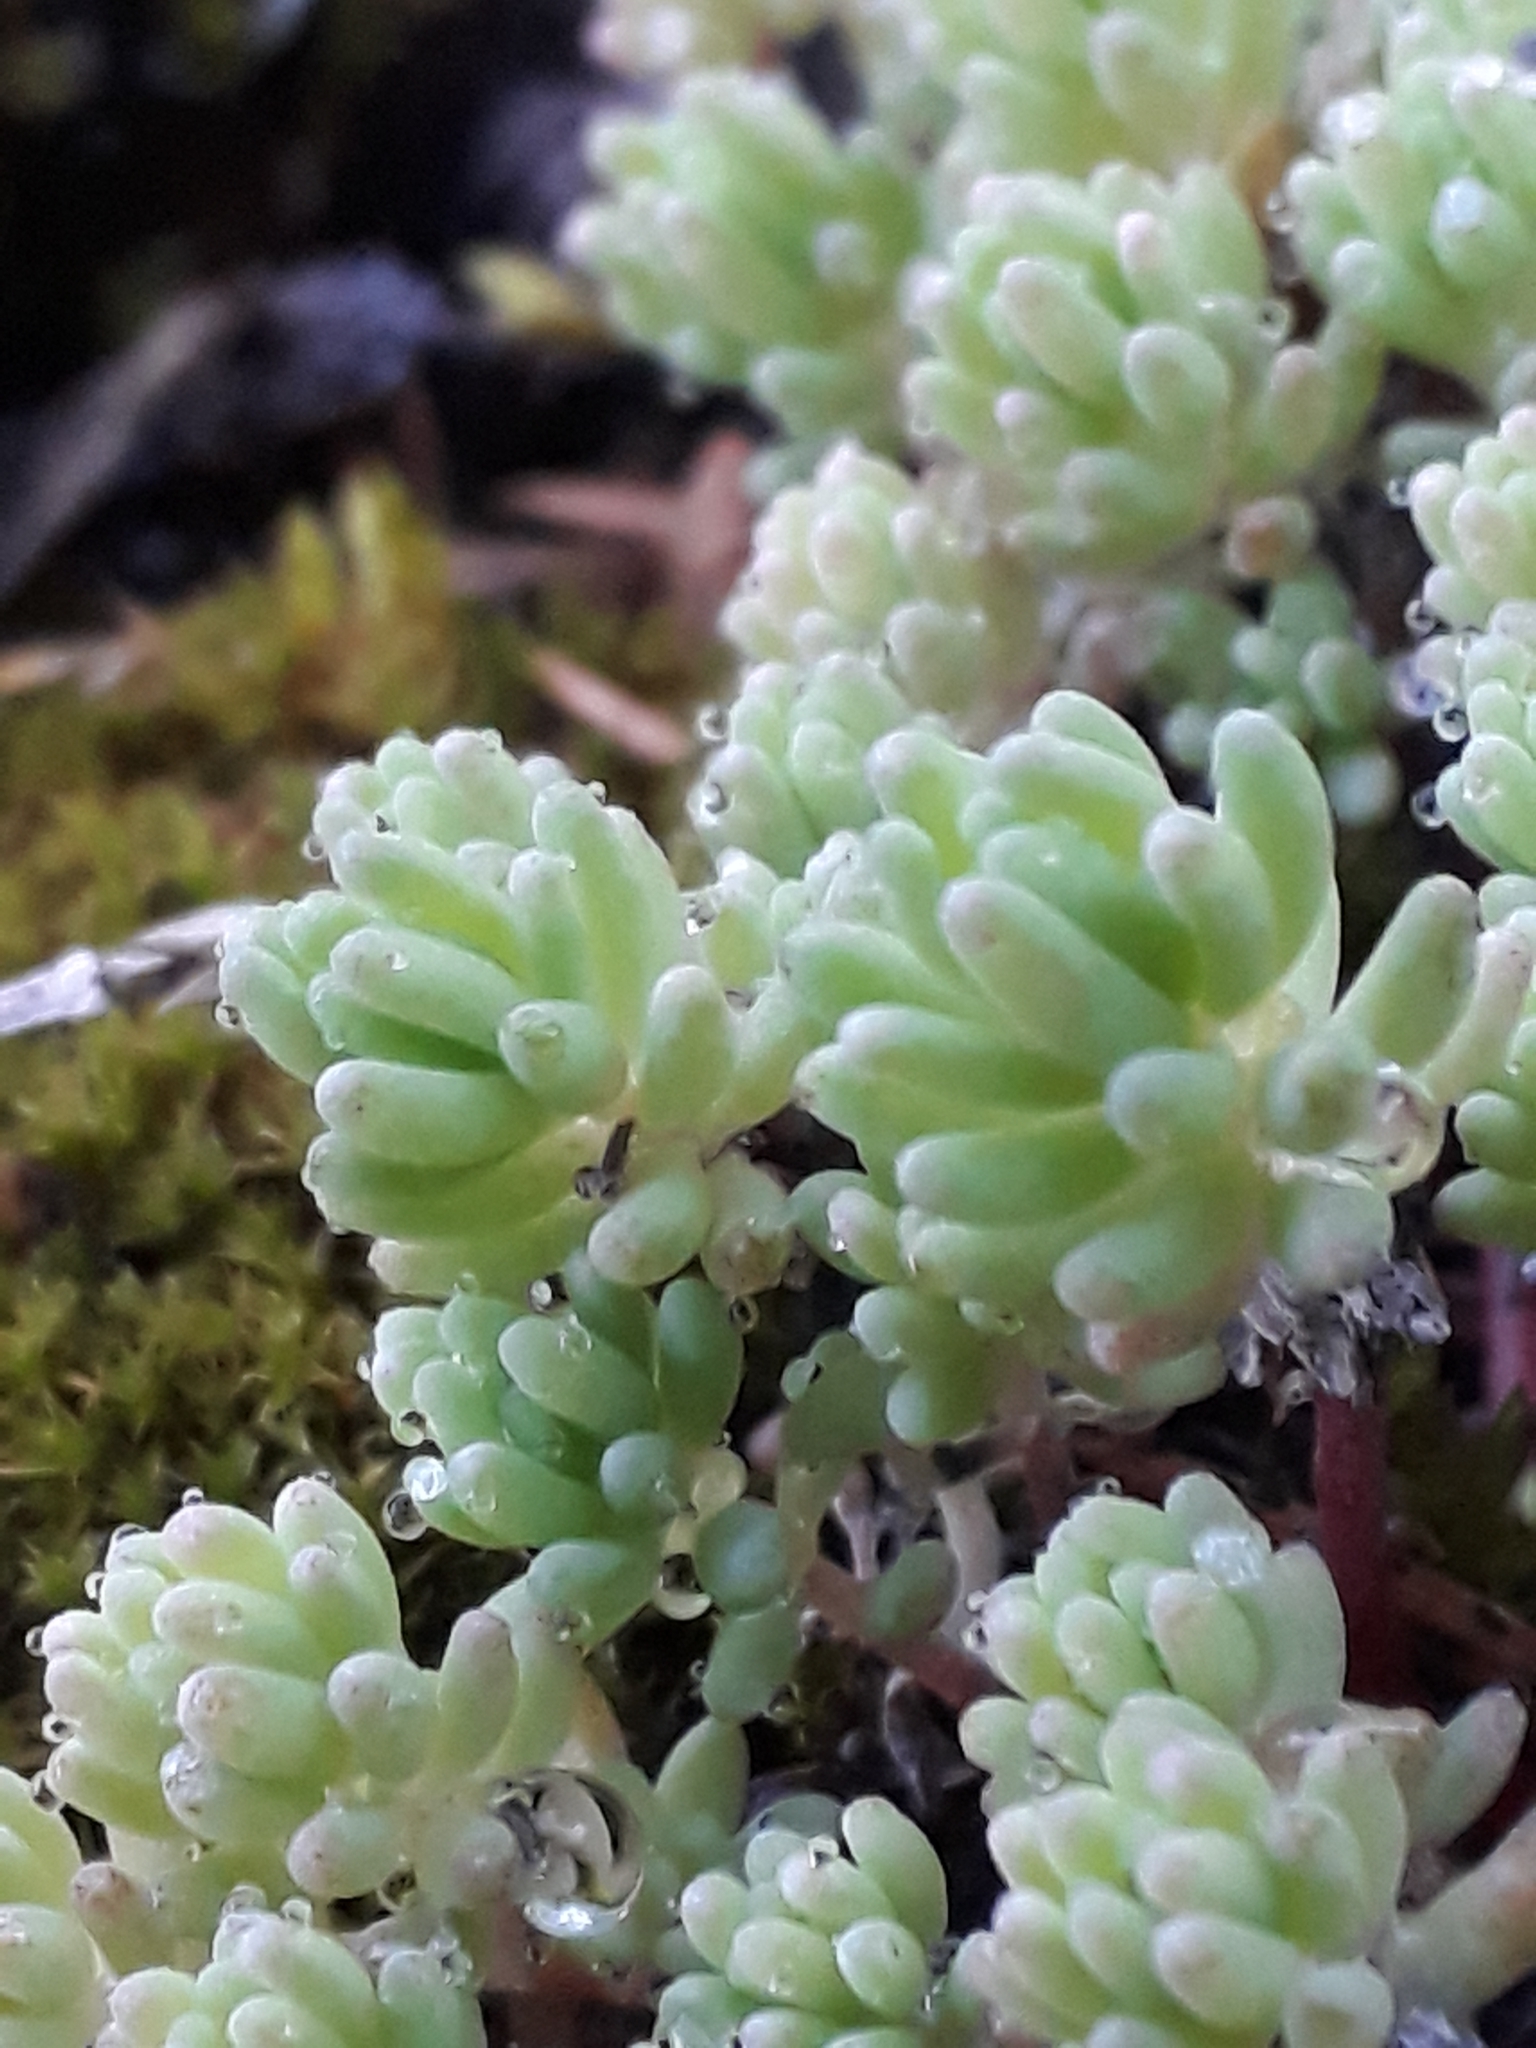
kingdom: Plantae
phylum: Tracheophyta
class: Magnoliopsida
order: Saxifragales
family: Crassulaceae
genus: Sedum
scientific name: Sedum pallidum
